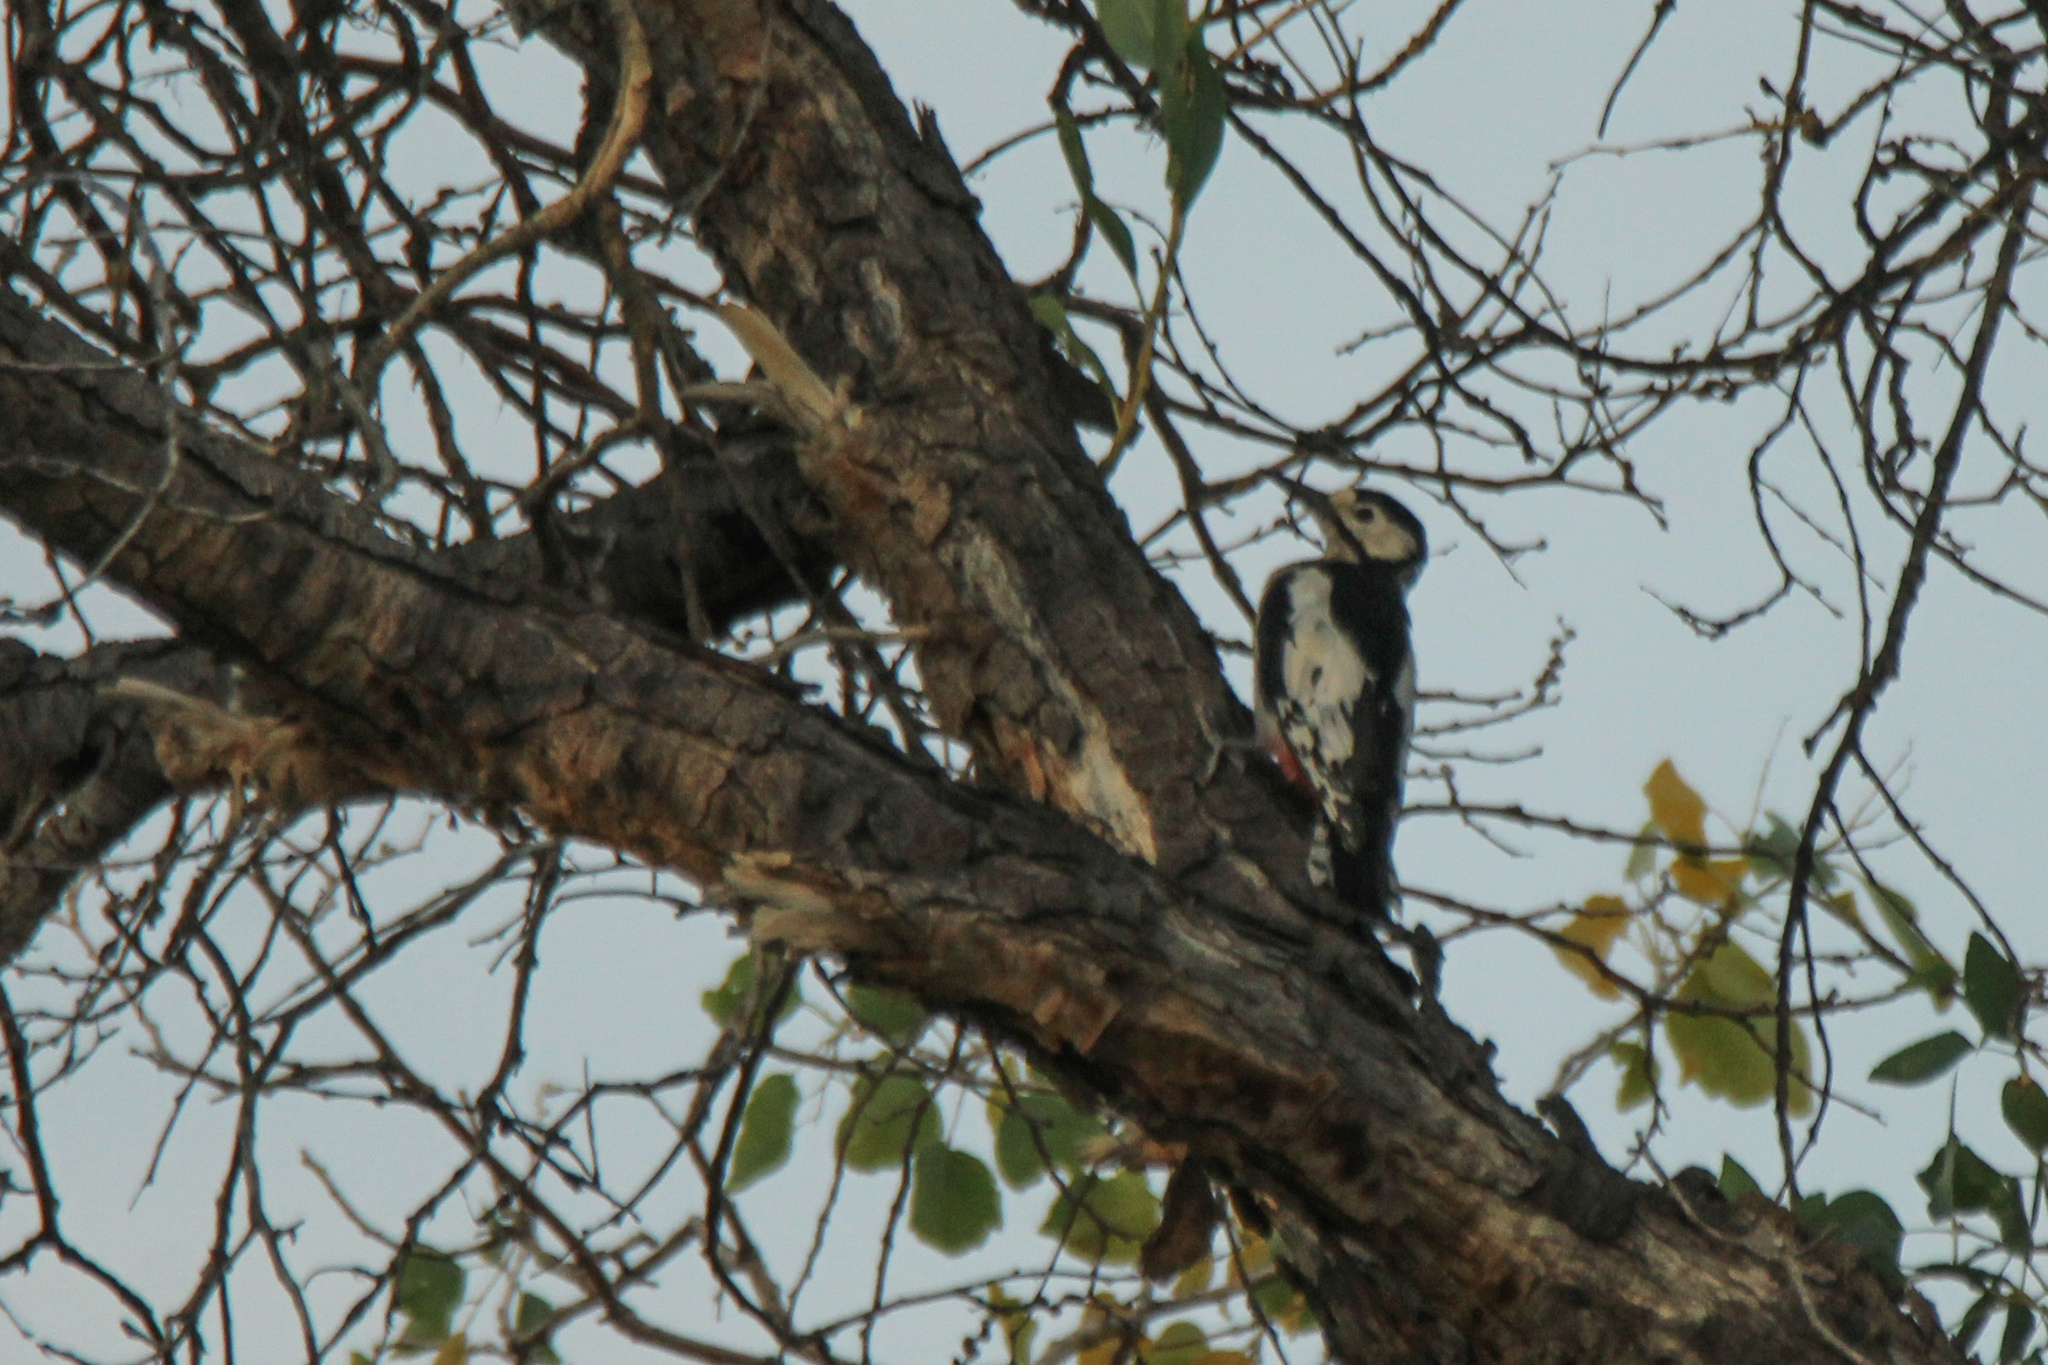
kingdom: Animalia
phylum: Chordata
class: Aves
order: Piciformes
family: Picidae
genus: Dendrocopos
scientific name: Dendrocopos leucopterus
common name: White-winged woodpecker
